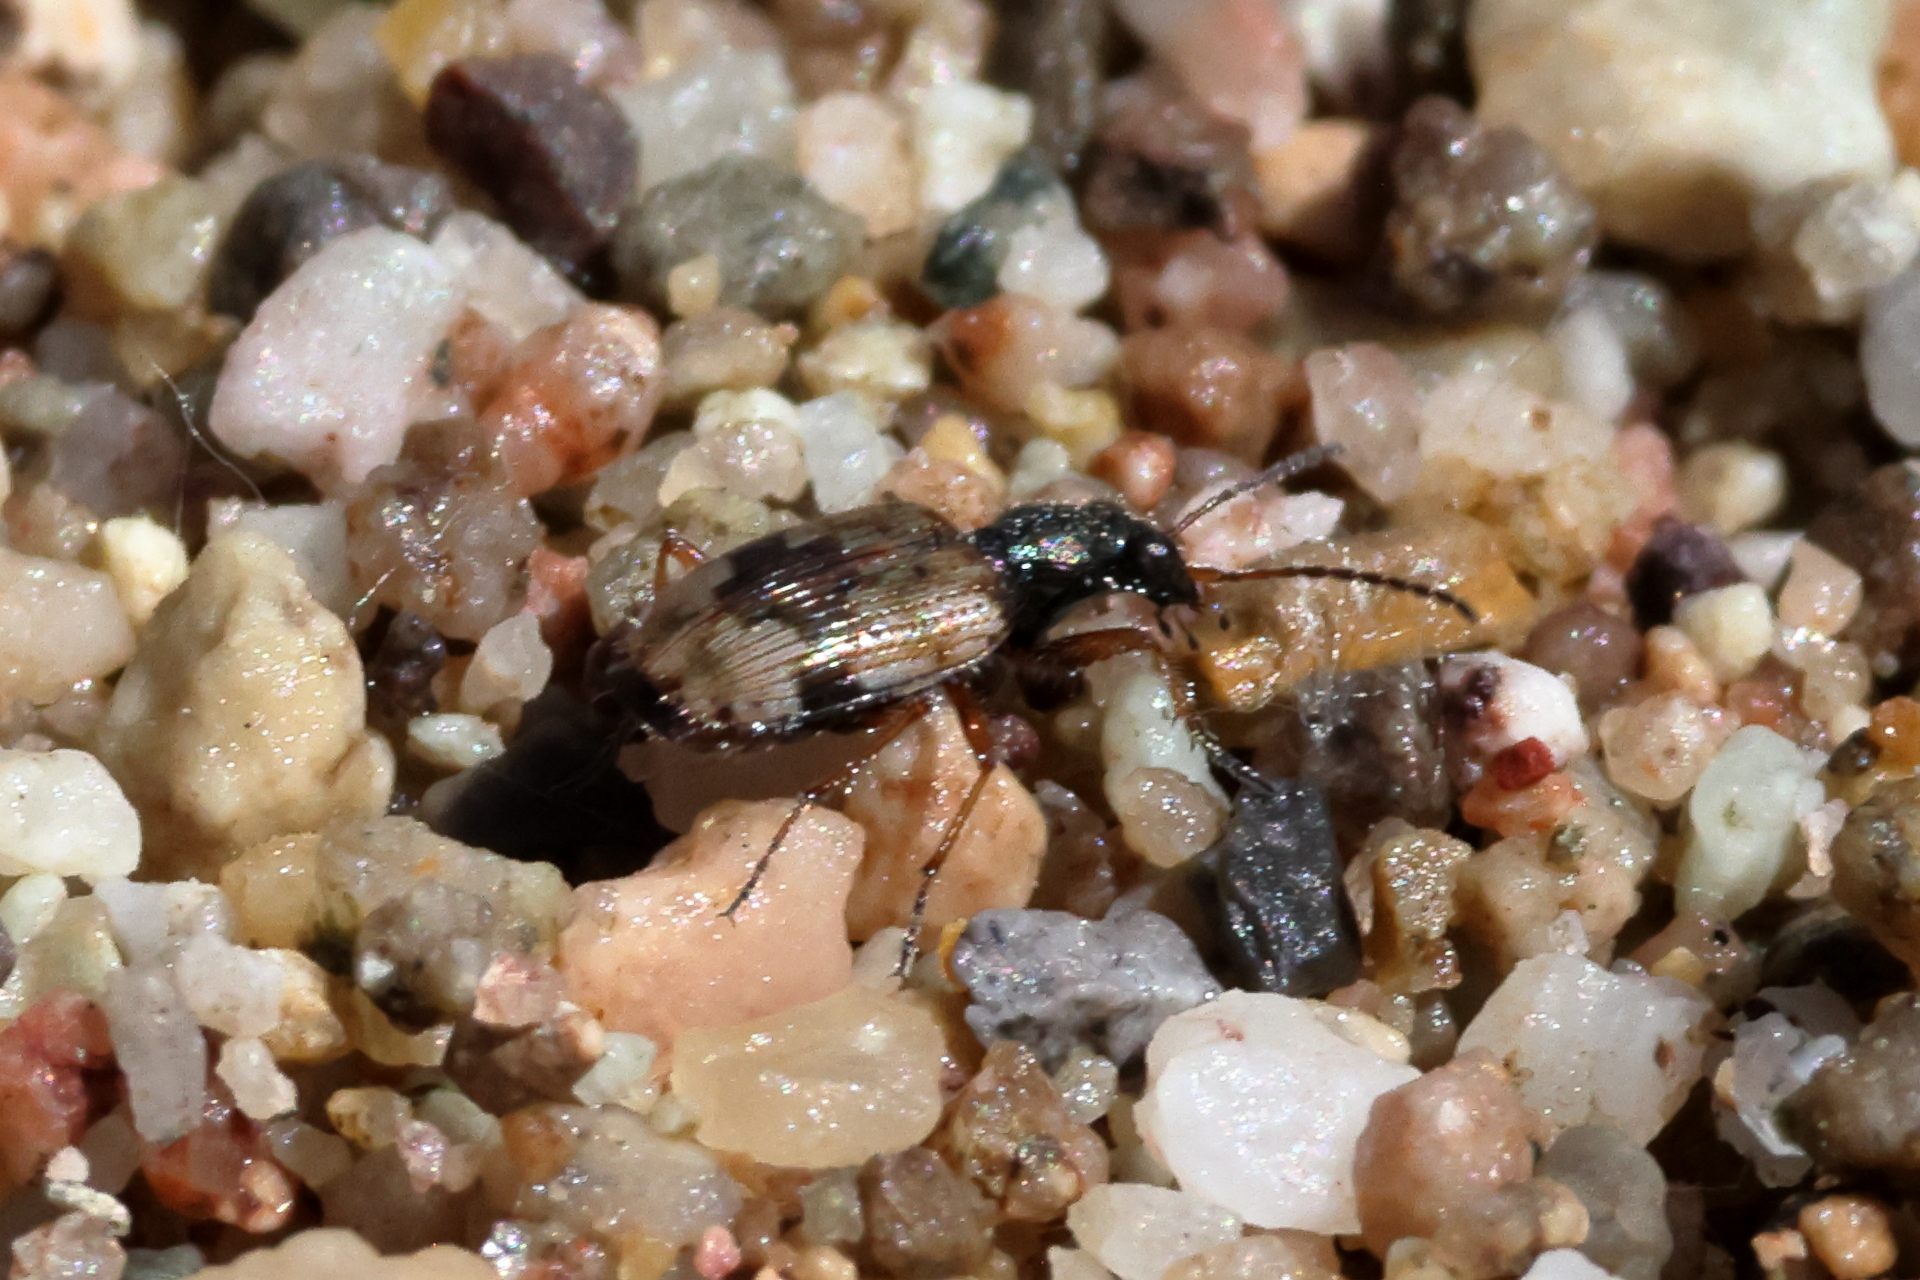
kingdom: Animalia
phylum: Arthropoda
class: Insecta
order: Coleoptera
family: Carabidae
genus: Lachnophorus
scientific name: Lachnophorus elegantulus
